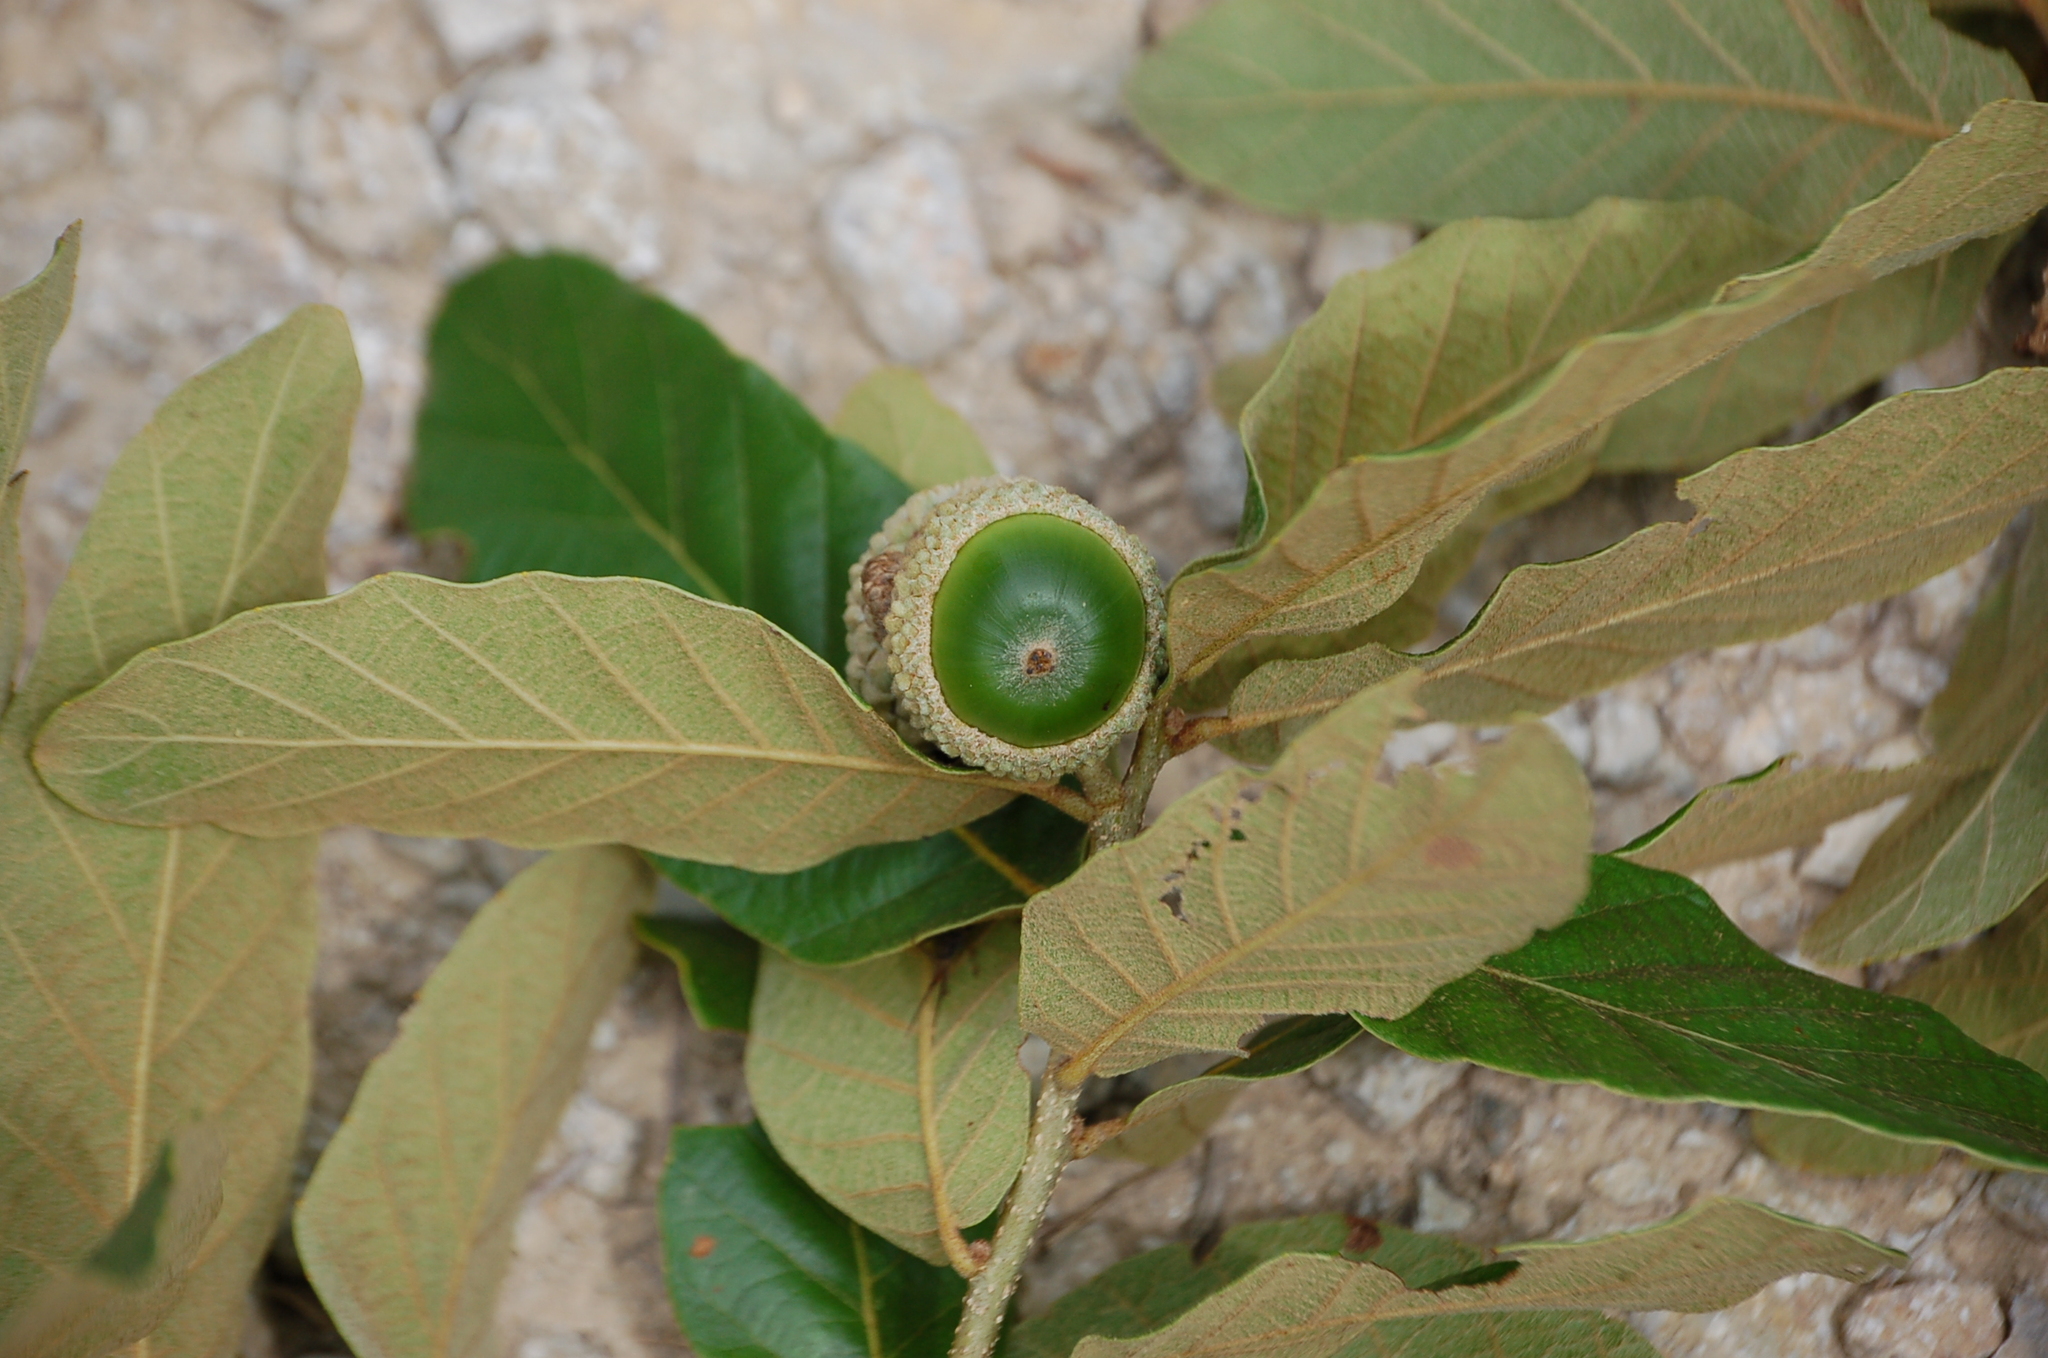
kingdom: Plantae
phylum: Tracheophyta
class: Magnoliopsida
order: Fagales
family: Fagaceae
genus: Quercus
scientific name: Quercus purulhana
